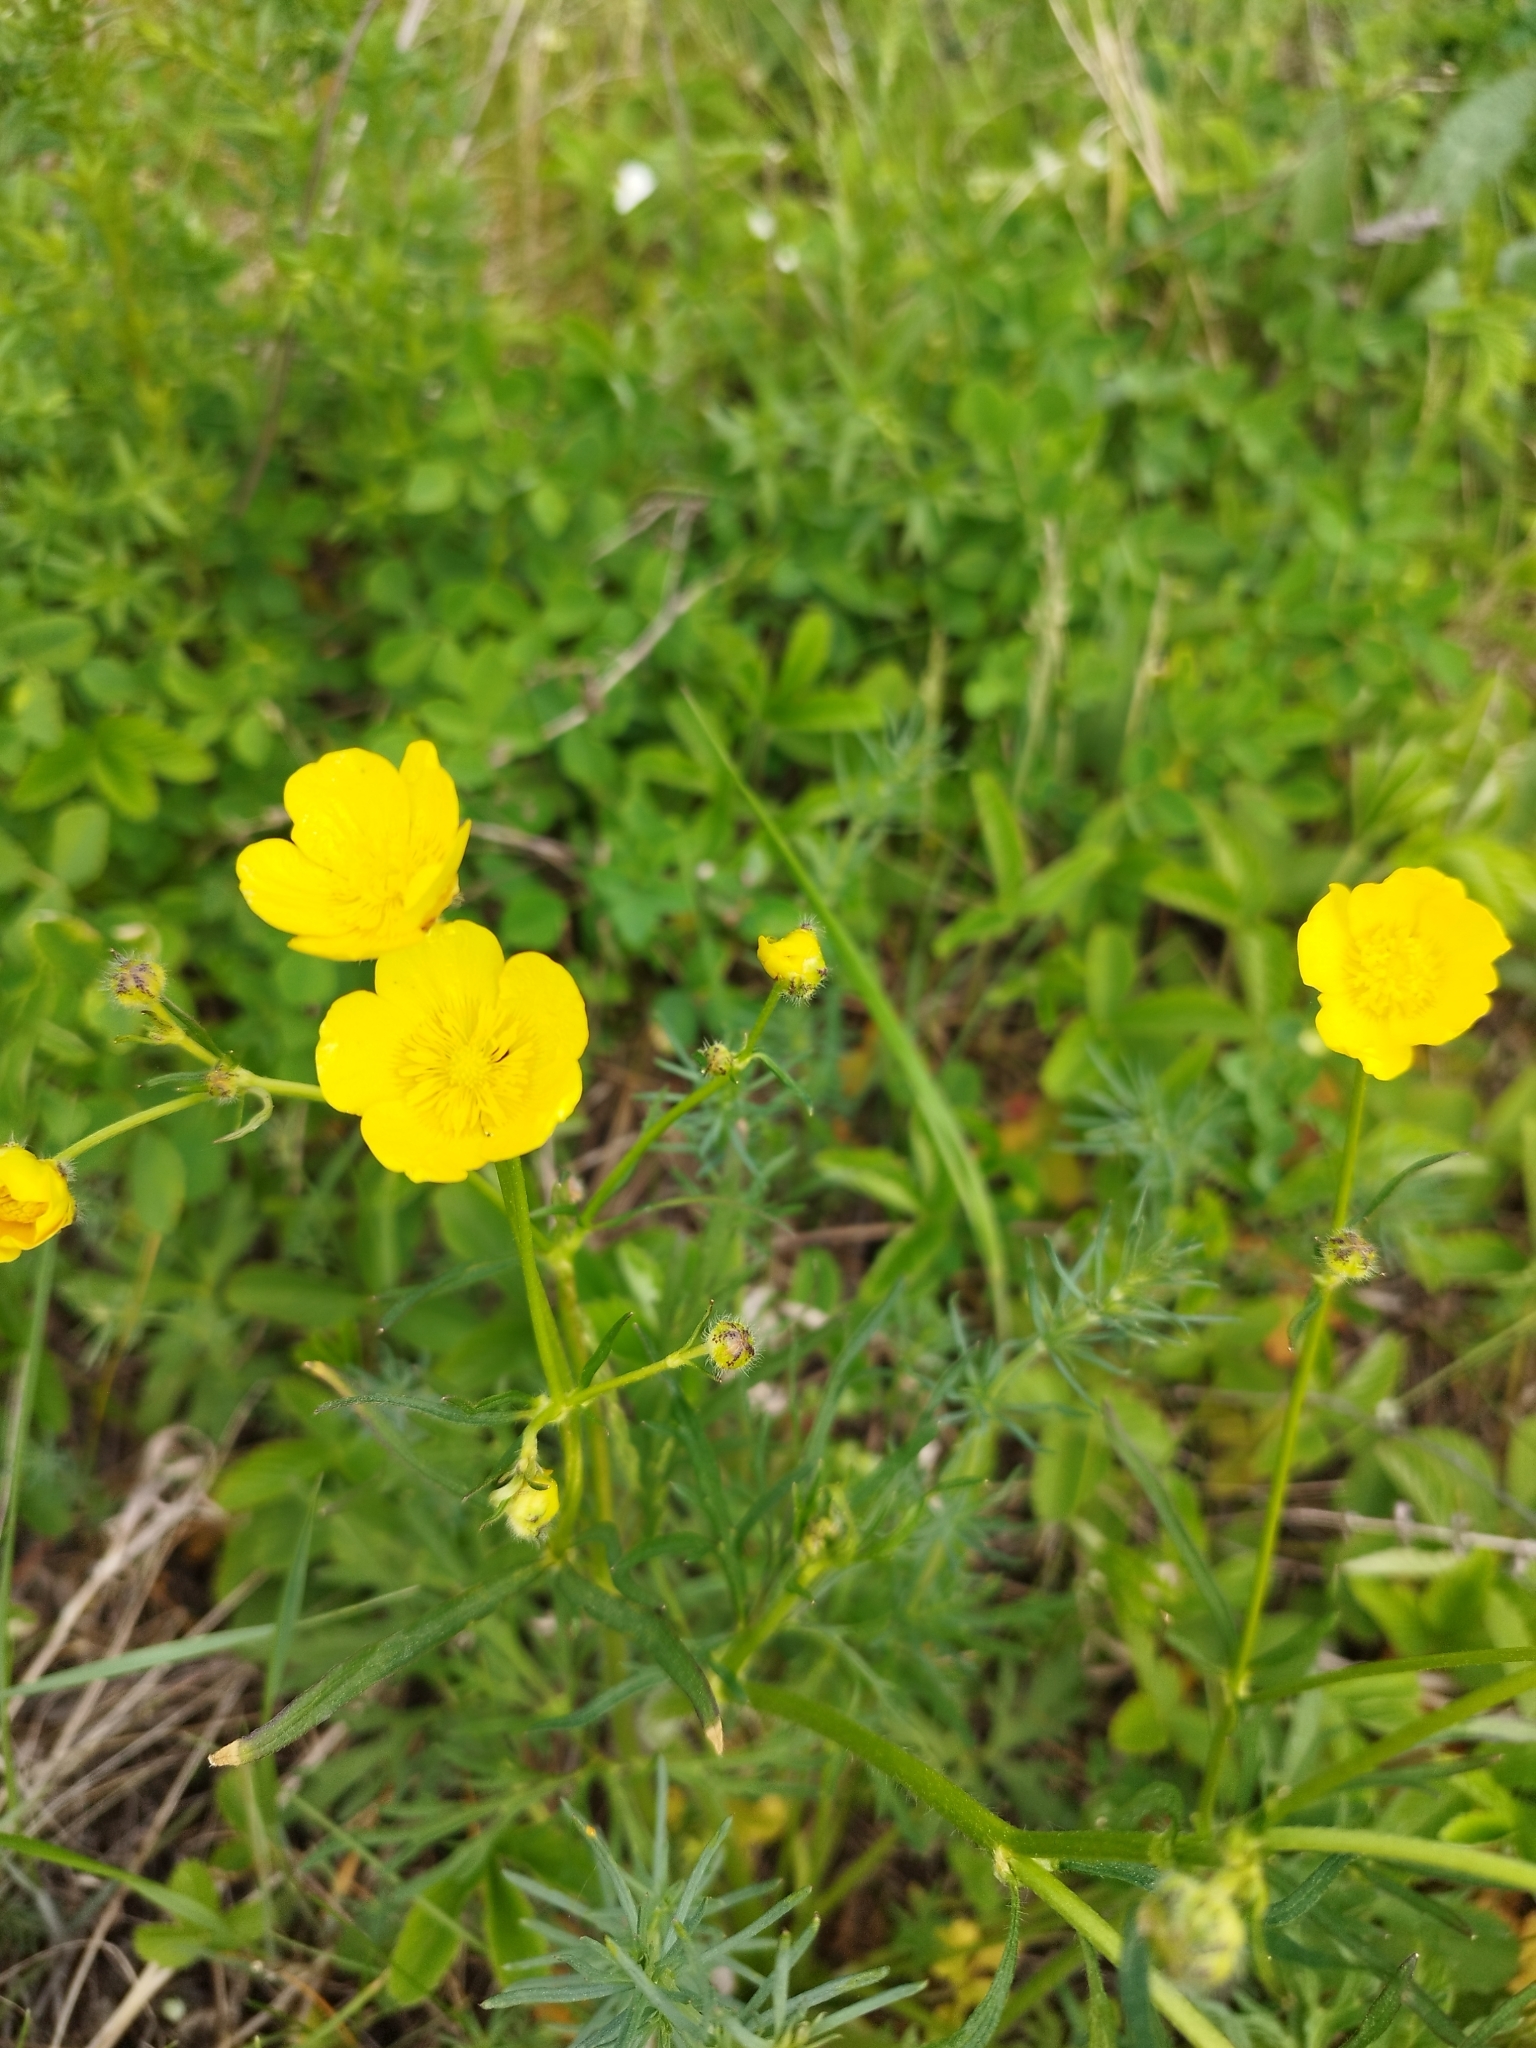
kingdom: Plantae
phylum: Tracheophyta
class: Magnoliopsida
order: Ranunculales
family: Ranunculaceae
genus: Ranunculus
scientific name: Ranunculus polyanthemos
